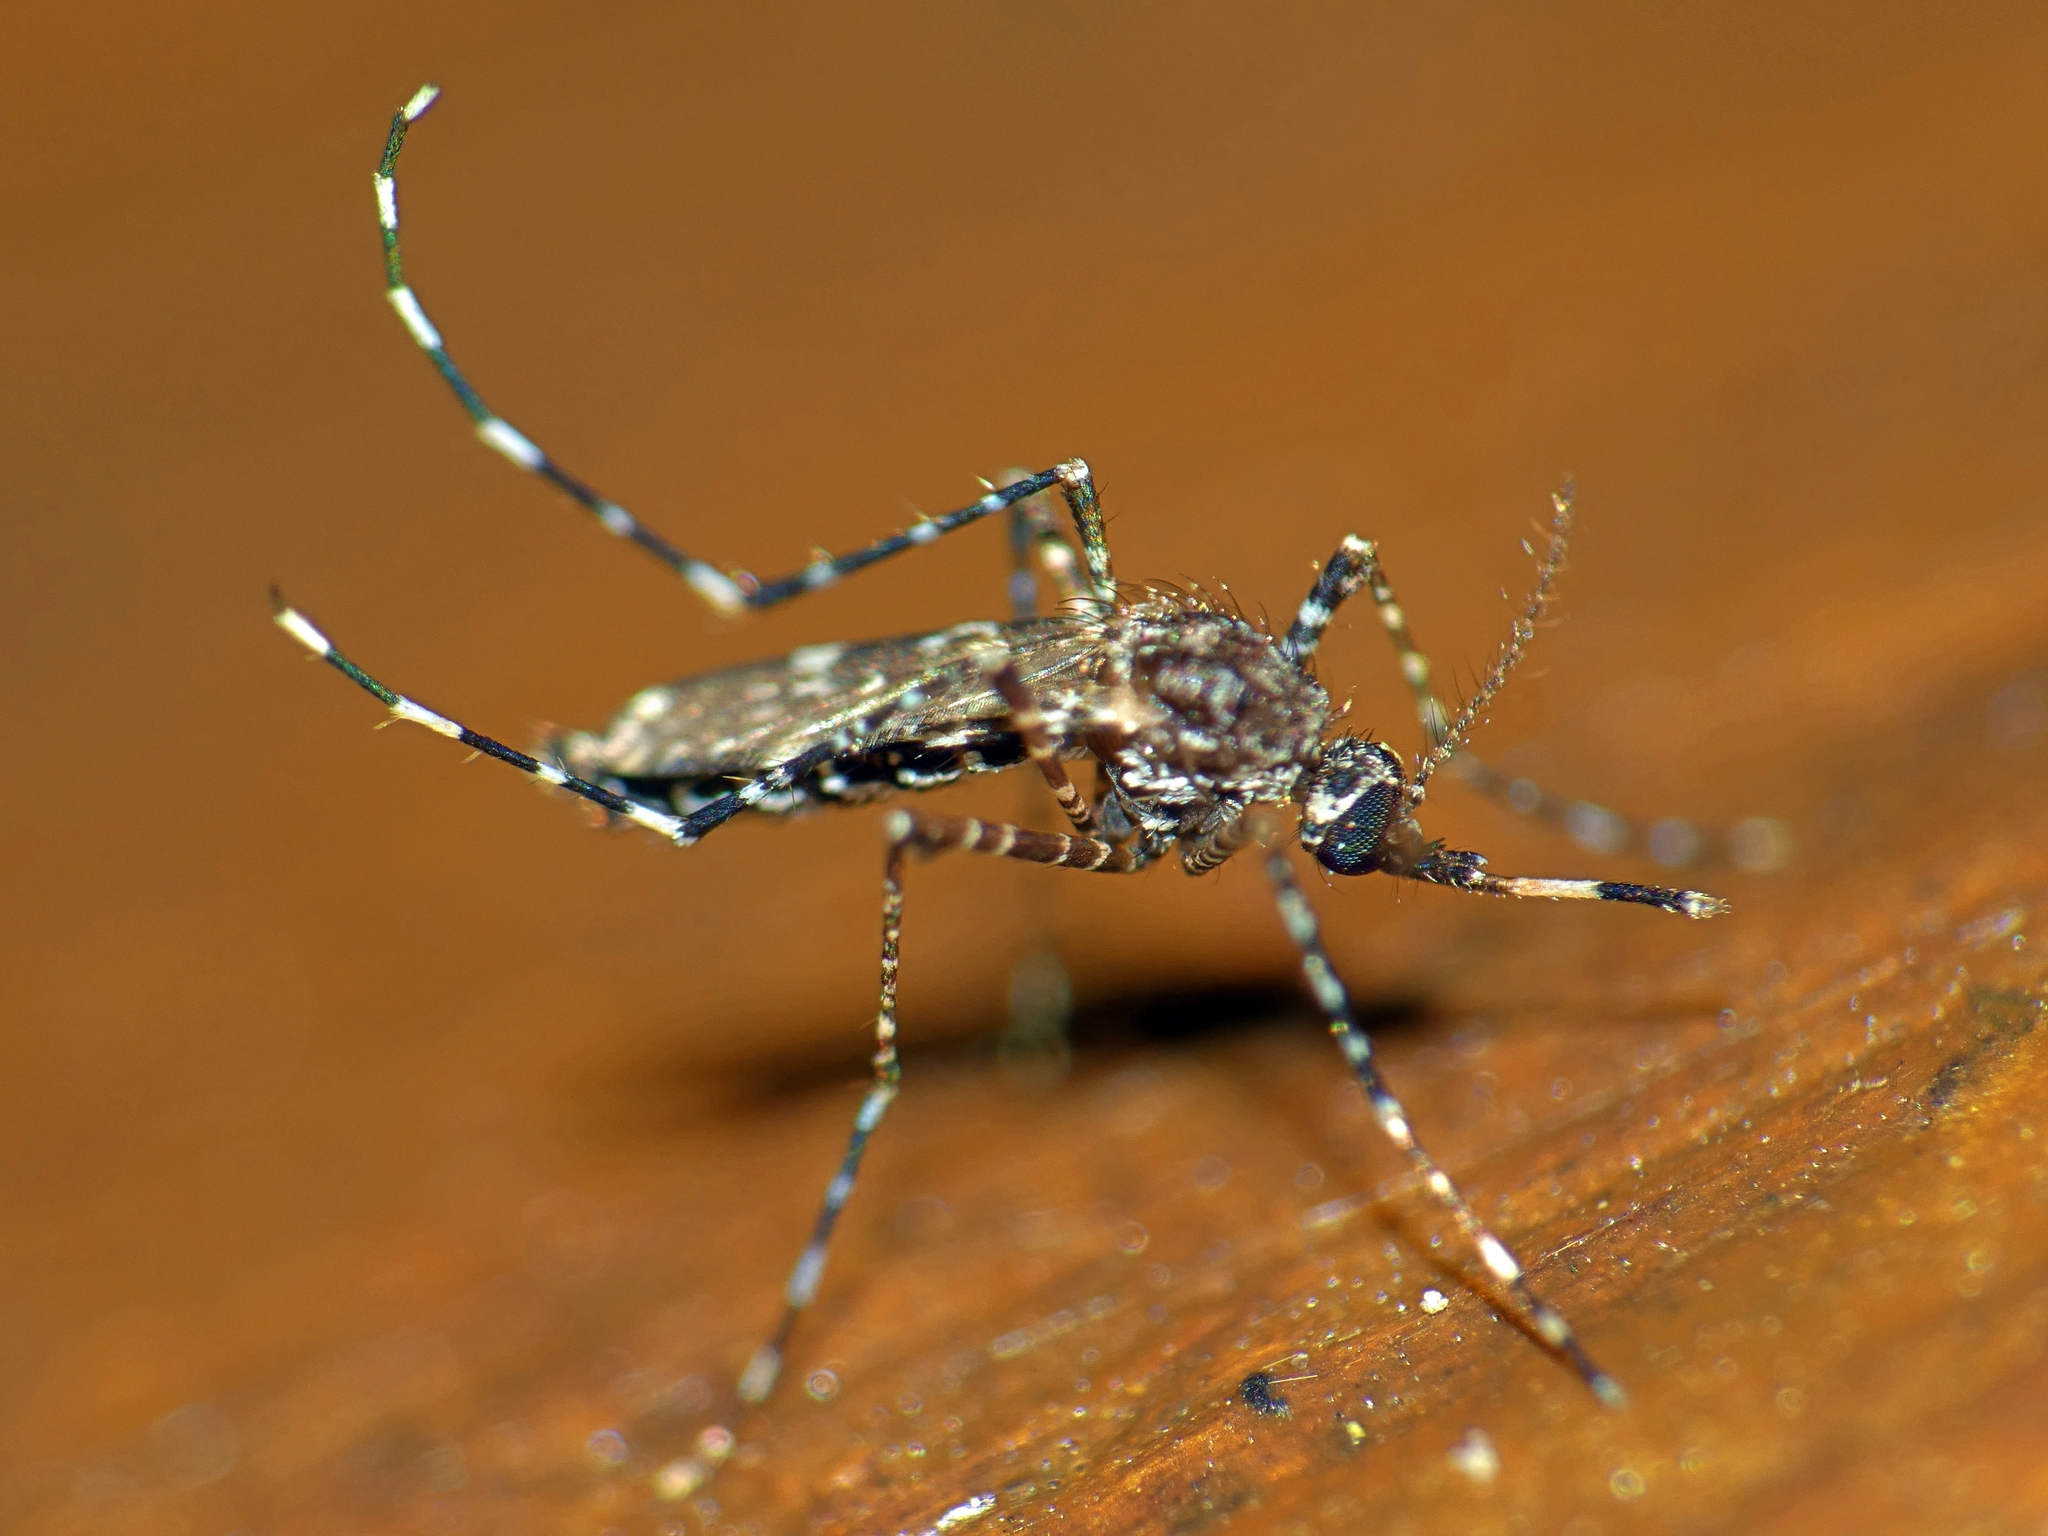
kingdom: Animalia
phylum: Arthropoda
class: Insecta
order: Diptera
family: Culicidae
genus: Aedes
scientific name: Aedes alternans
